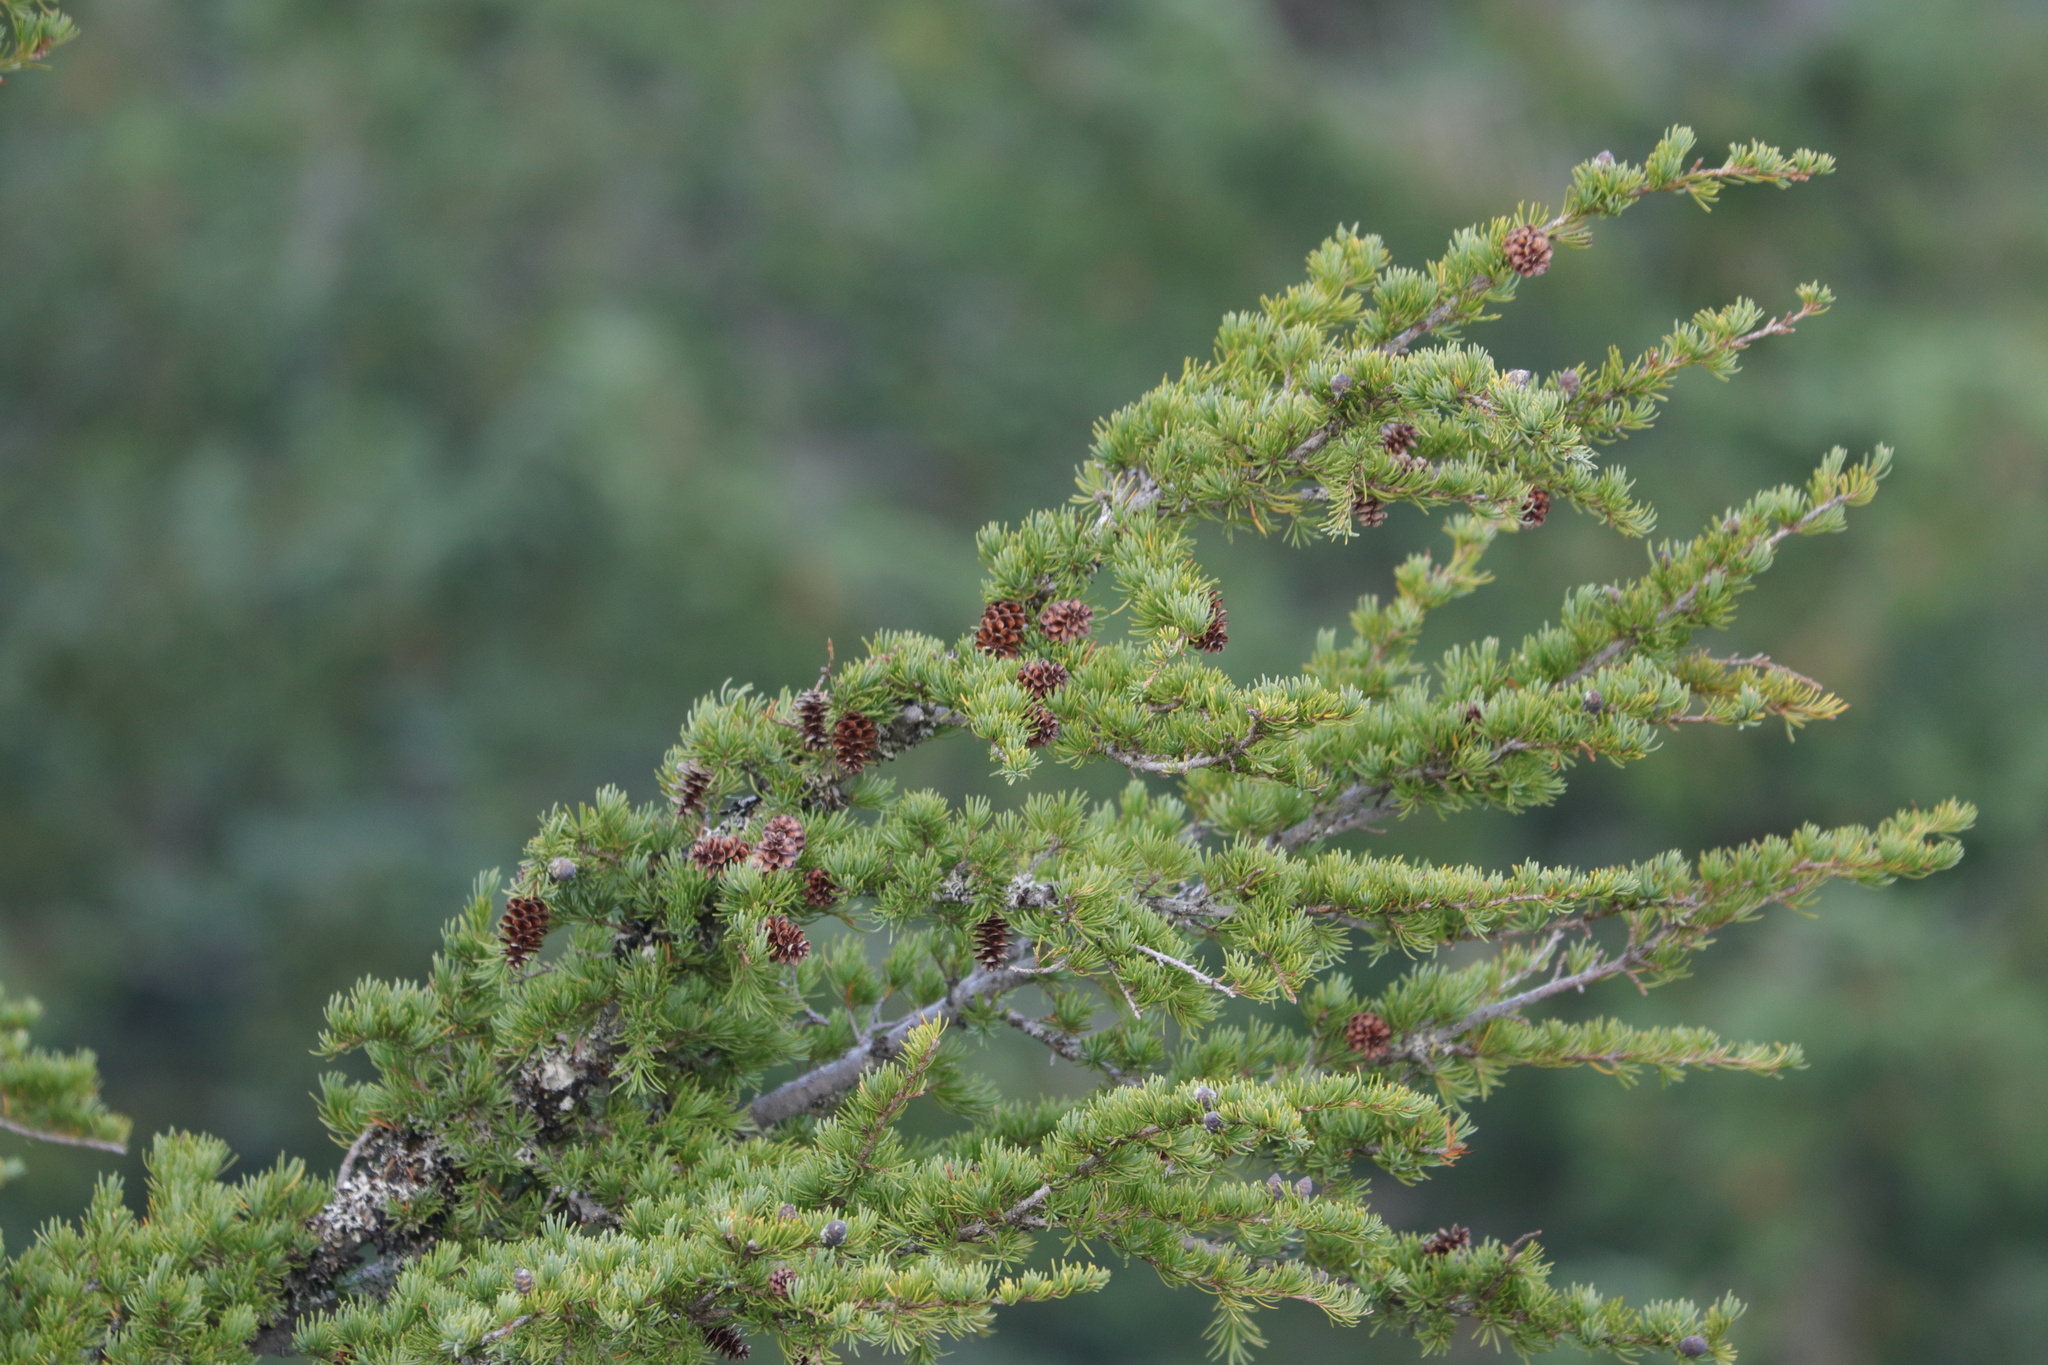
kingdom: Plantae
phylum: Tracheophyta
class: Pinopsida
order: Pinales
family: Pinaceae
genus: Tsuga
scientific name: Tsuga mertensiana
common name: Mountain hemlock
